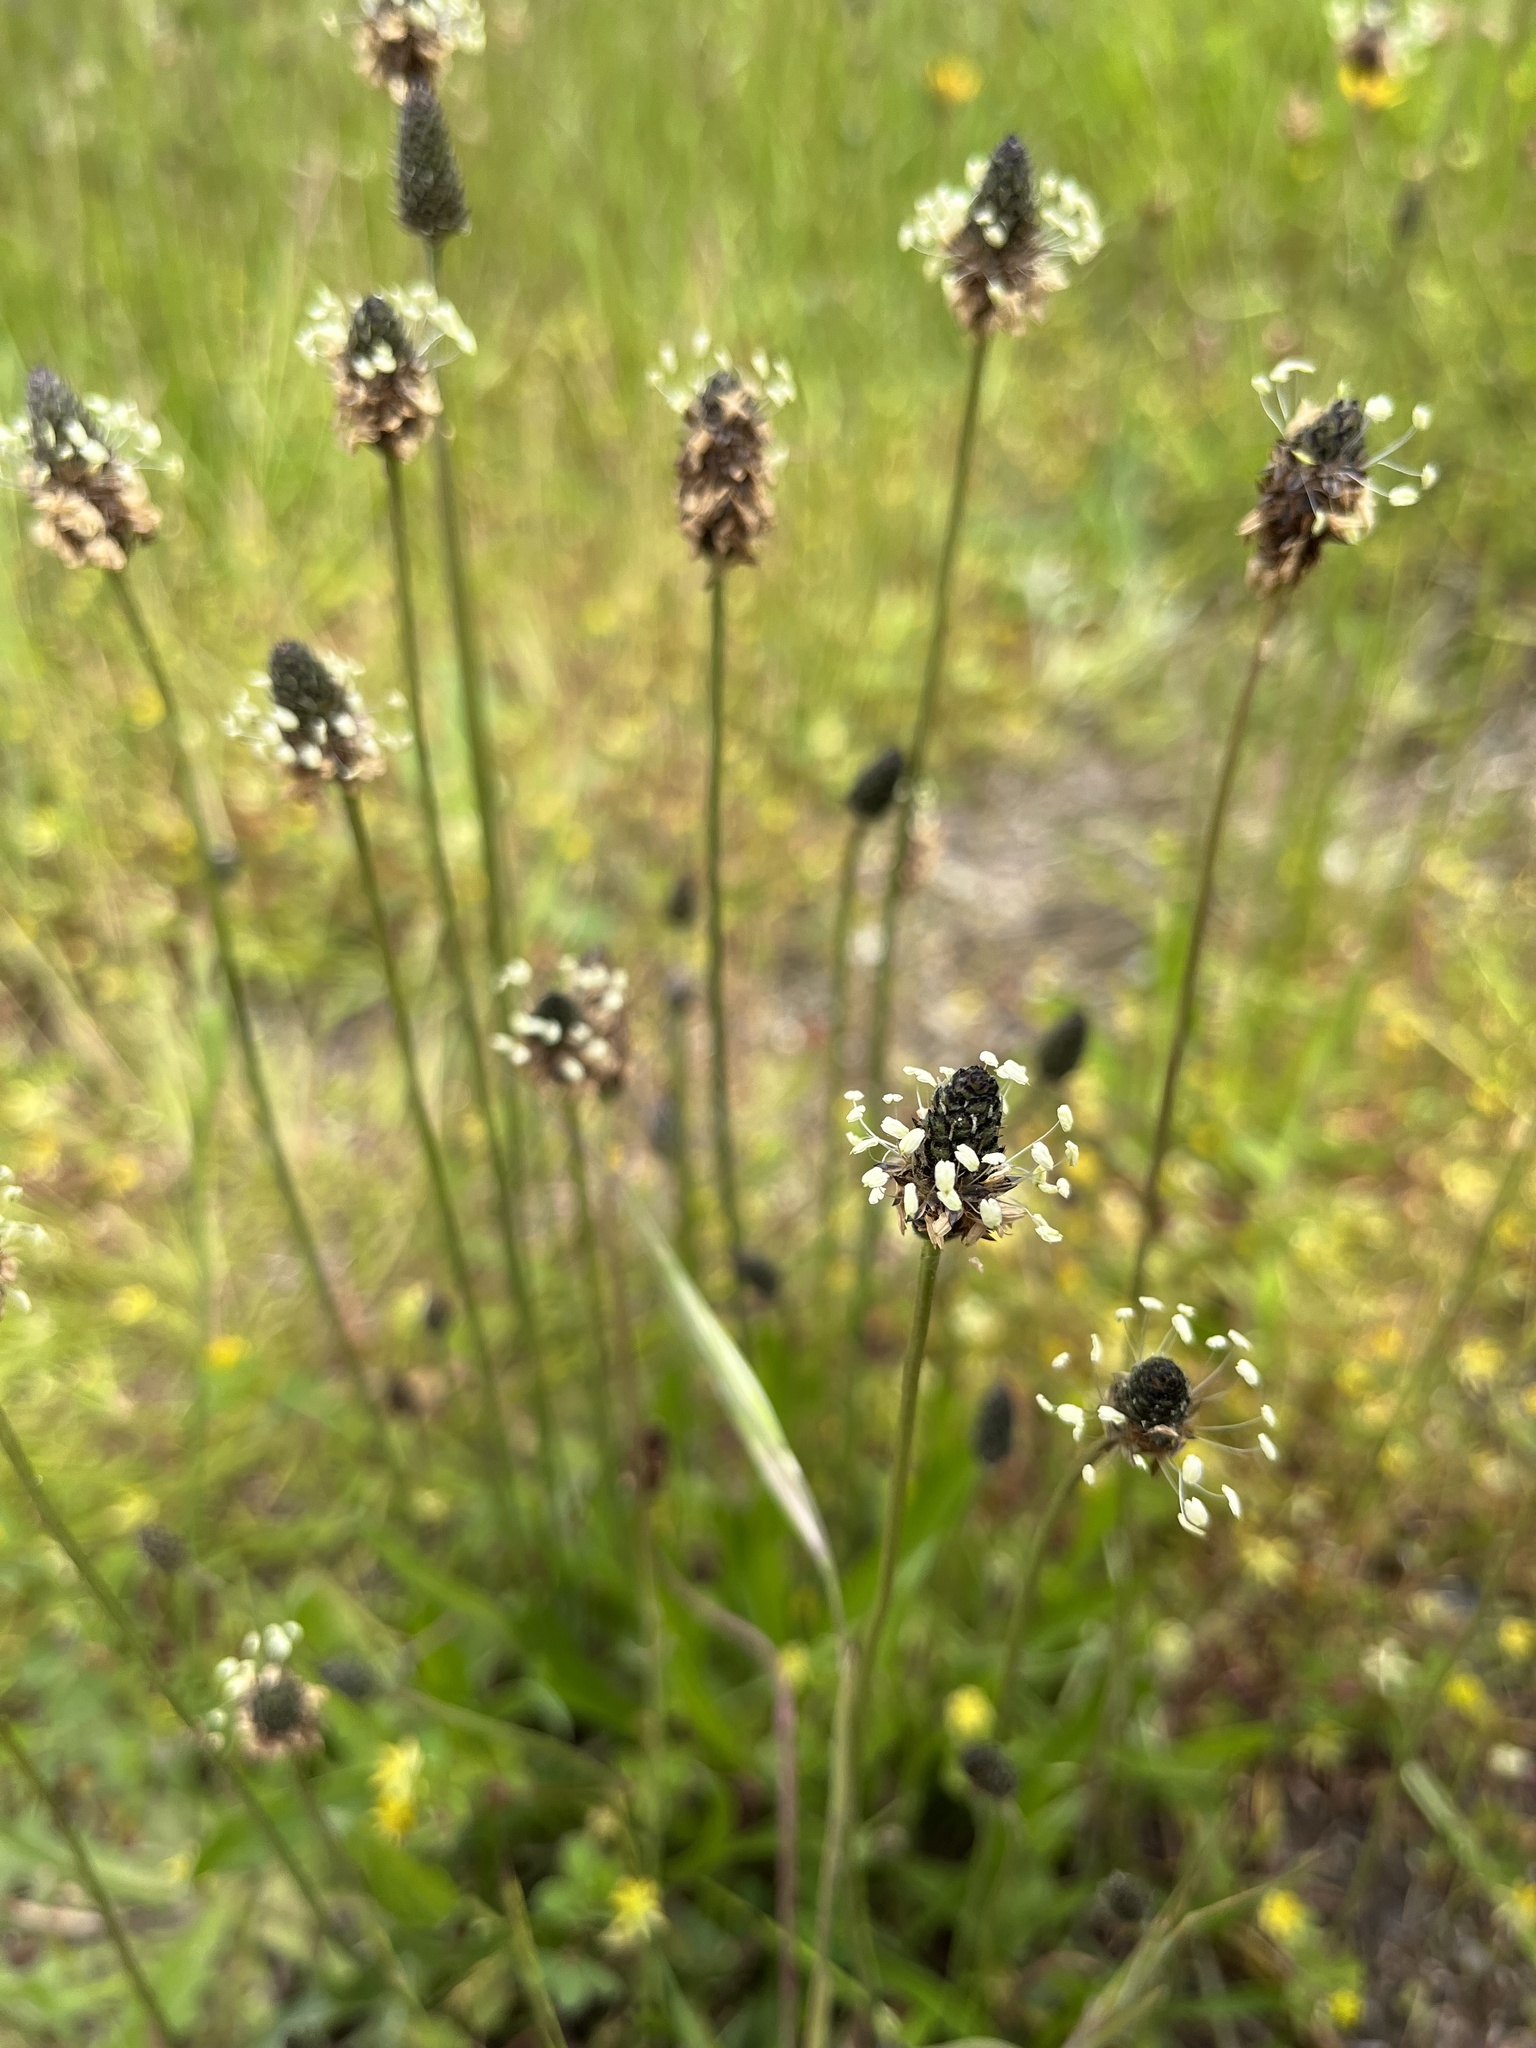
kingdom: Plantae
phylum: Tracheophyta
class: Magnoliopsida
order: Lamiales
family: Plantaginaceae
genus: Plantago
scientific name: Plantago lanceolata
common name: Ribwort plantain
